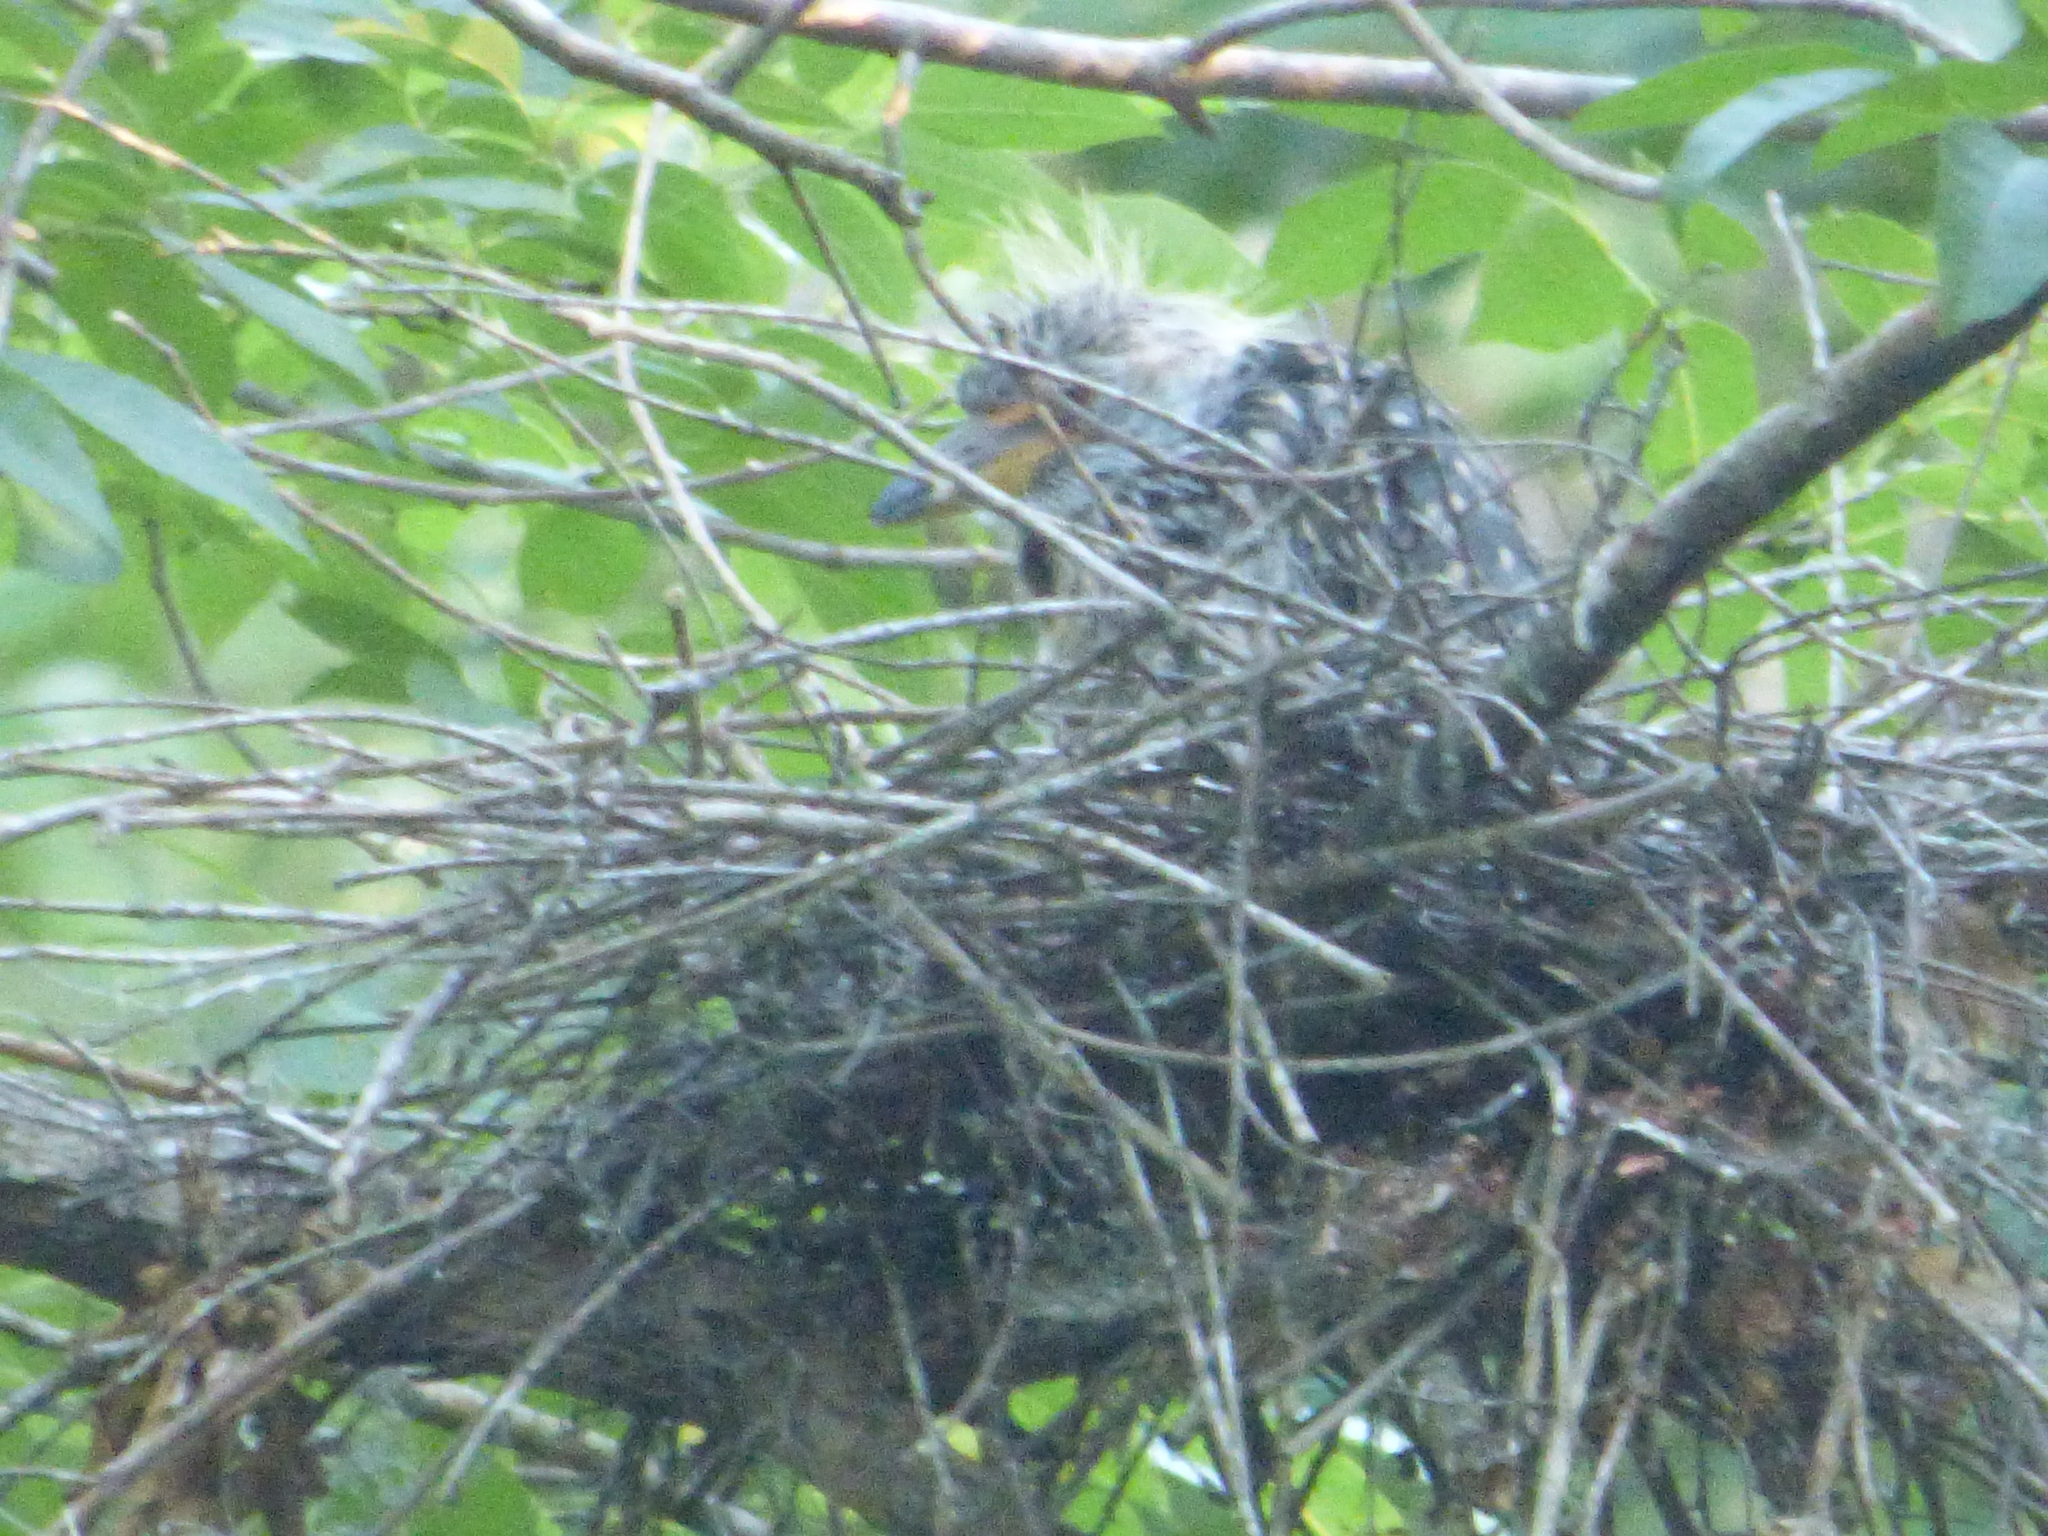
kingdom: Animalia
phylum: Chordata
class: Aves
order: Pelecaniformes
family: Ardeidae
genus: Nyctanassa
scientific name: Nyctanassa violacea
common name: Yellow-crowned night heron
